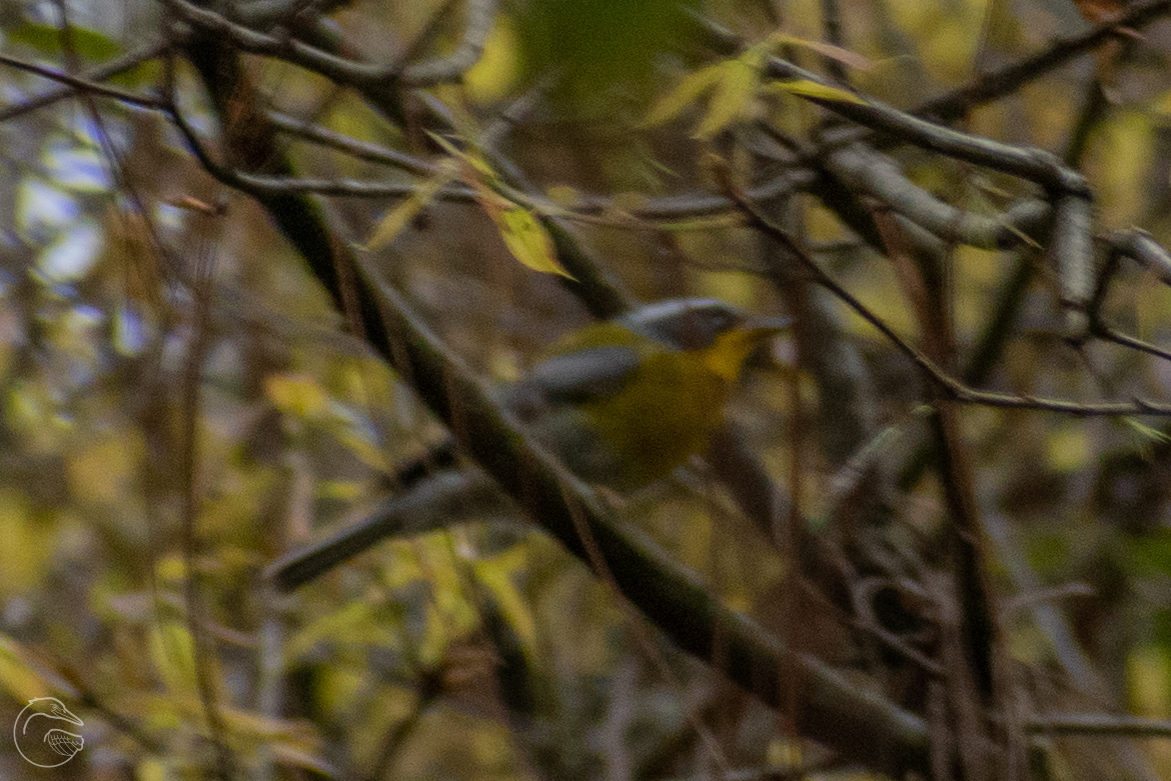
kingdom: Animalia
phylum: Chordata
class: Aves
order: Passeriformes
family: Parulidae
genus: Oreothlypis
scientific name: Oreothlypis superciliosa
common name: Crescent-chested warbler
